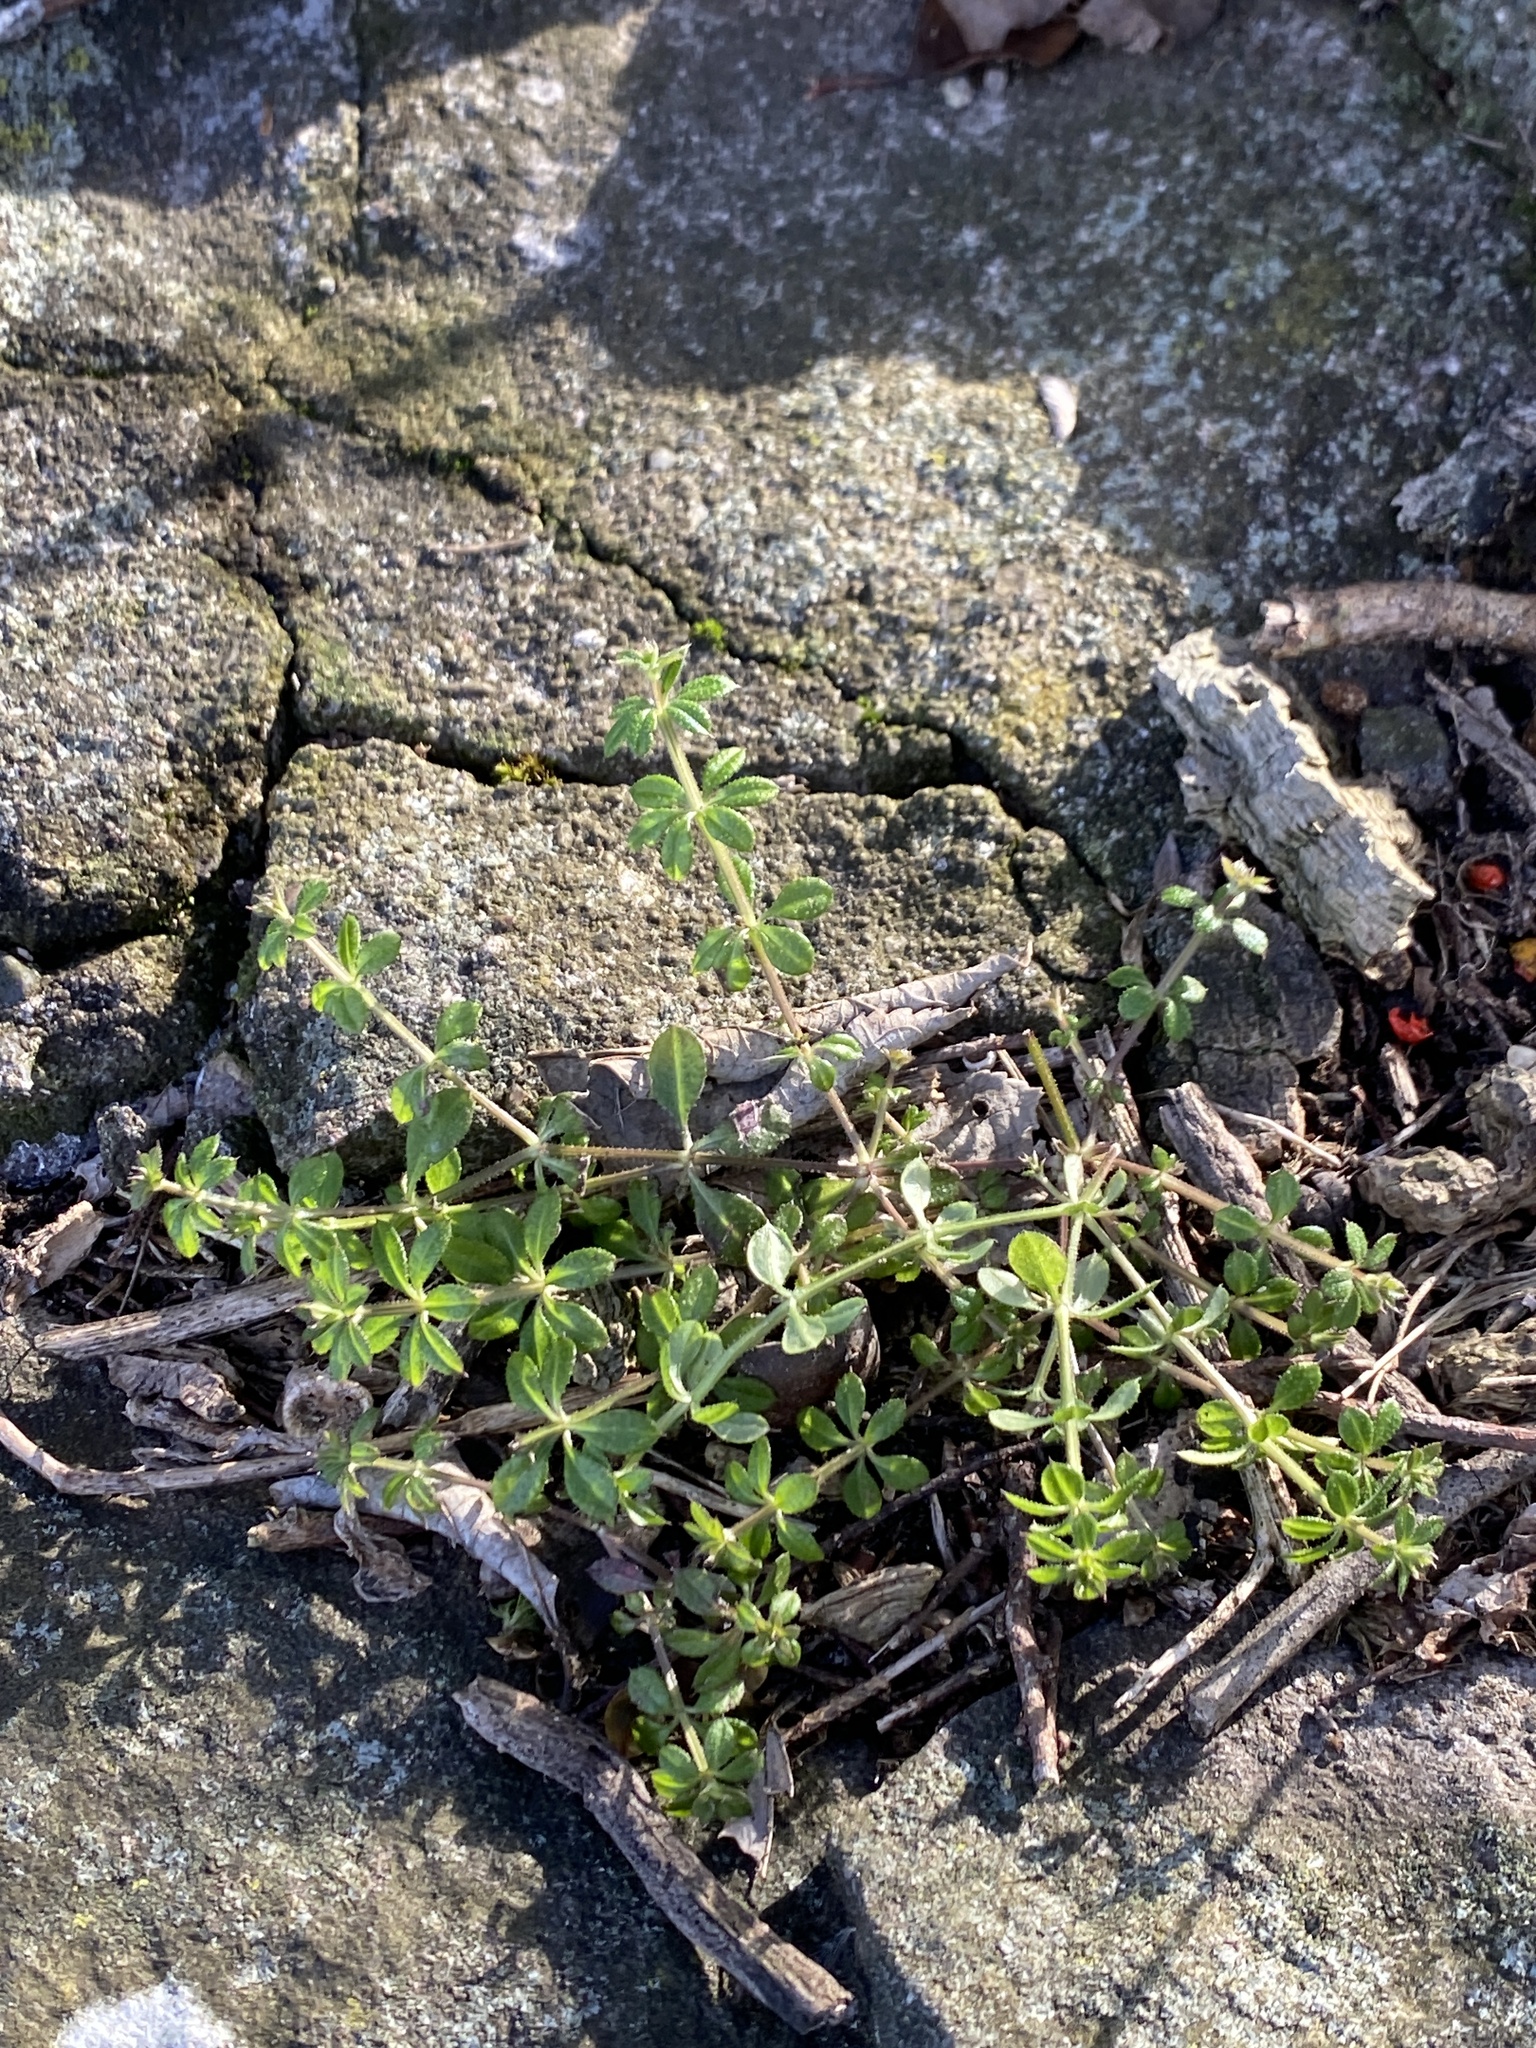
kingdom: Plantae
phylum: Tracheophyta
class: Magnoliopsida
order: Gentianales
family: Rubiaceae
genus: Galium
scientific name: Galium aparine
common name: Cleavers
